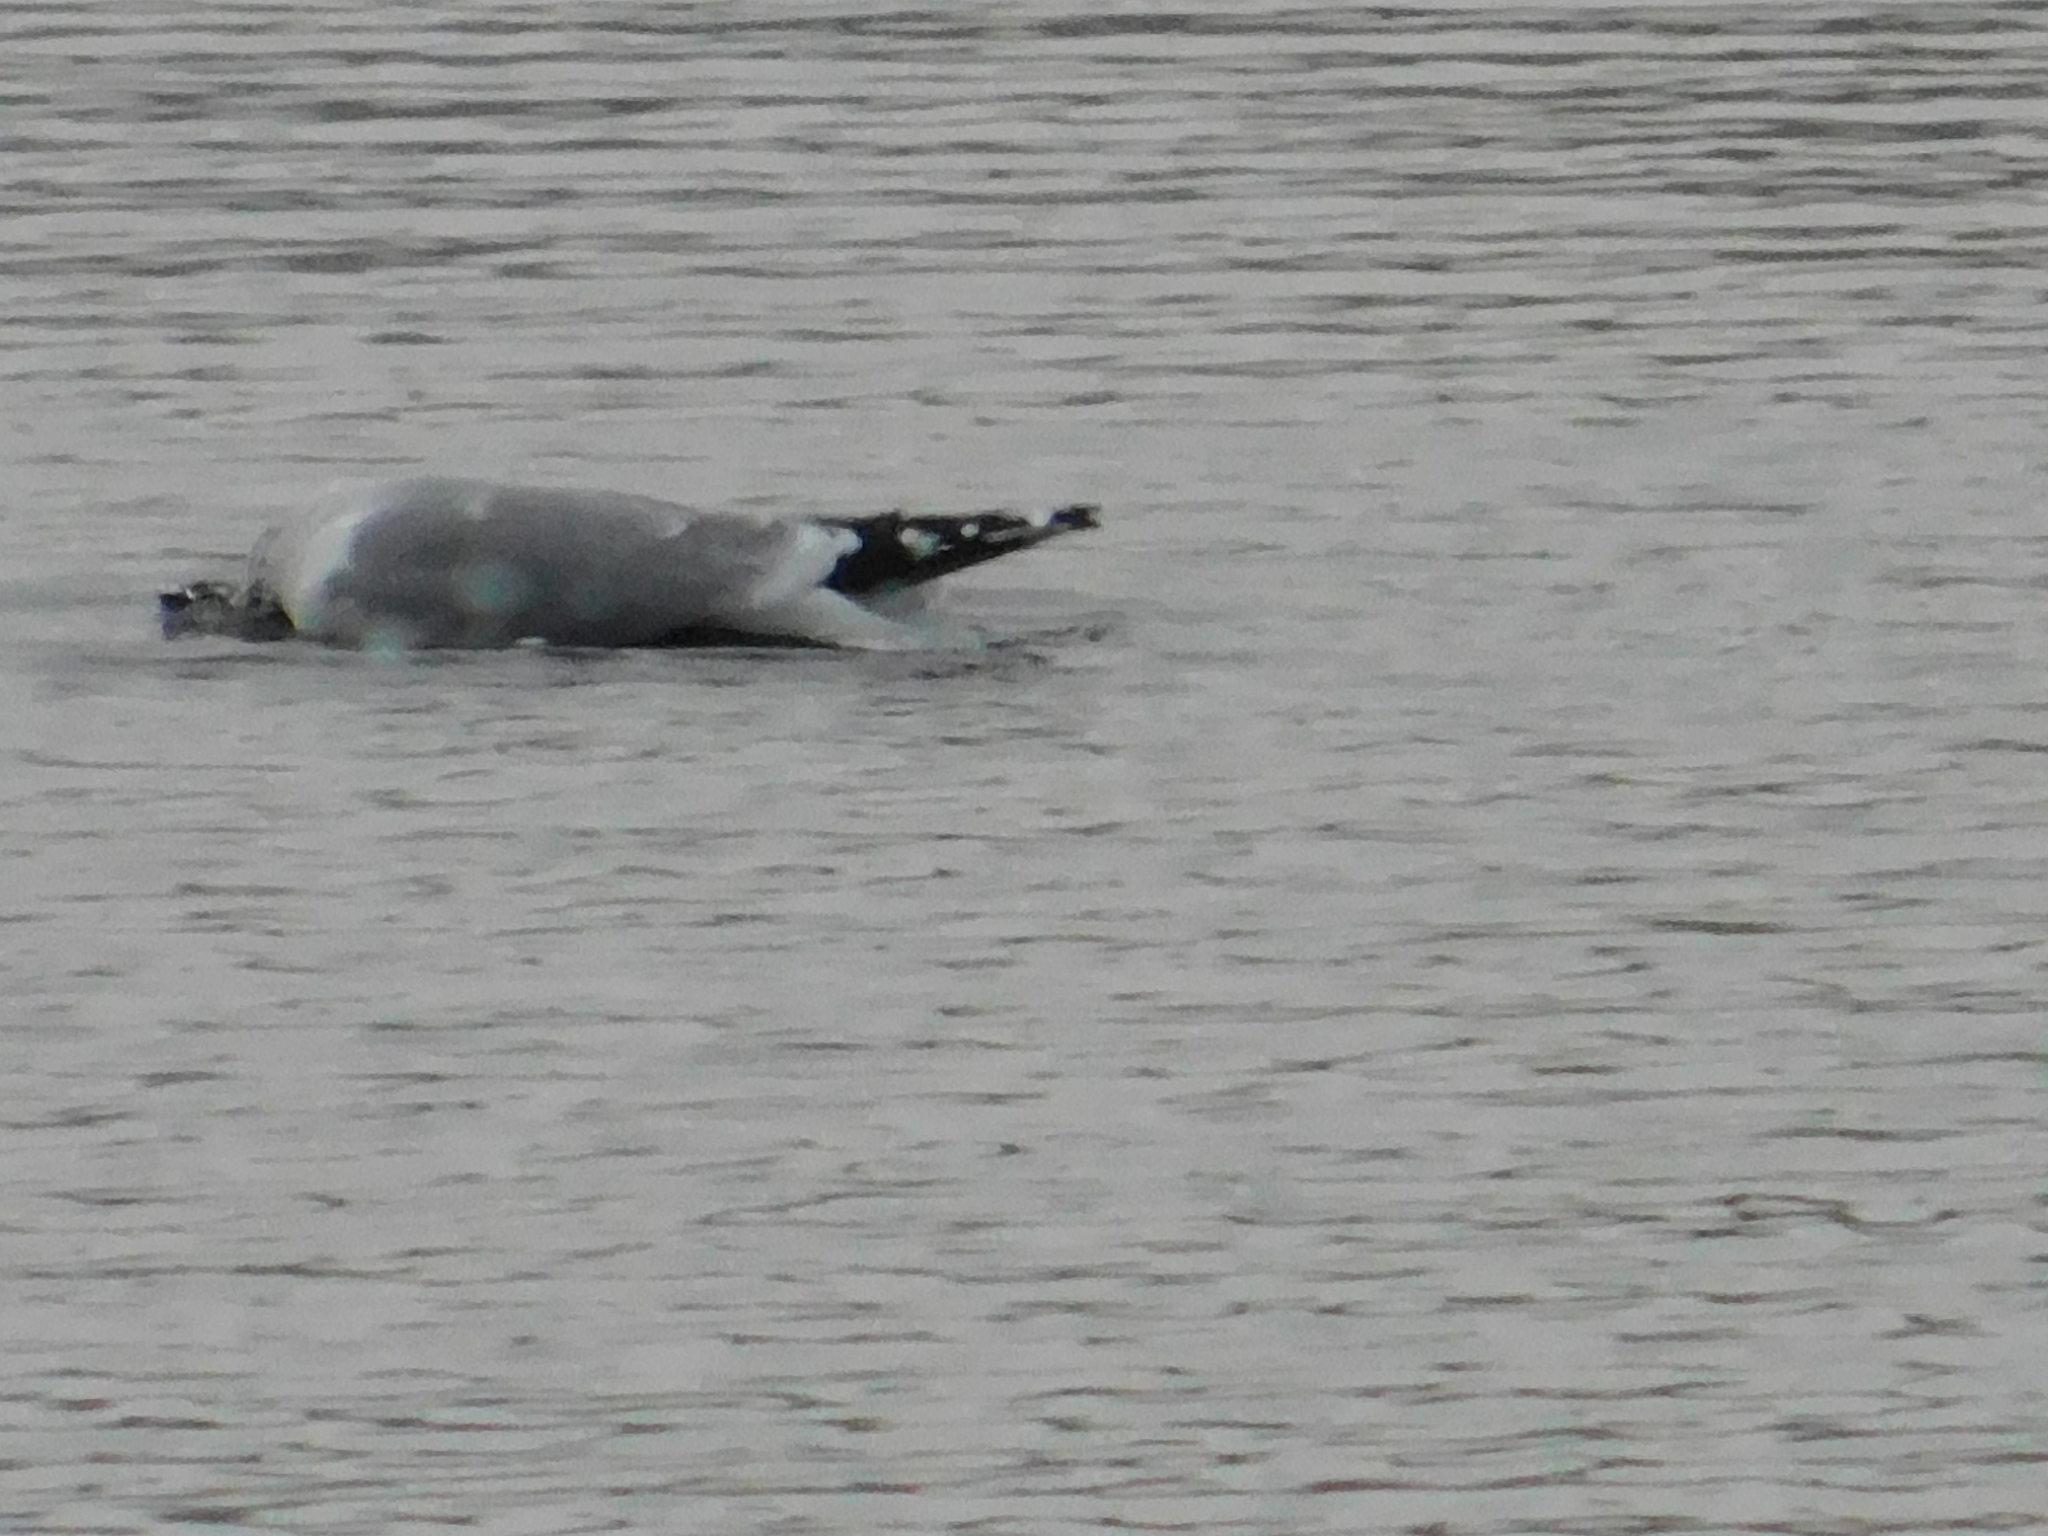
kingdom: Animalia
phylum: Chordata
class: Aves
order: Charadriiformes
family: Laridae
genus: Larus
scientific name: Larus canus
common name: Mew gull
